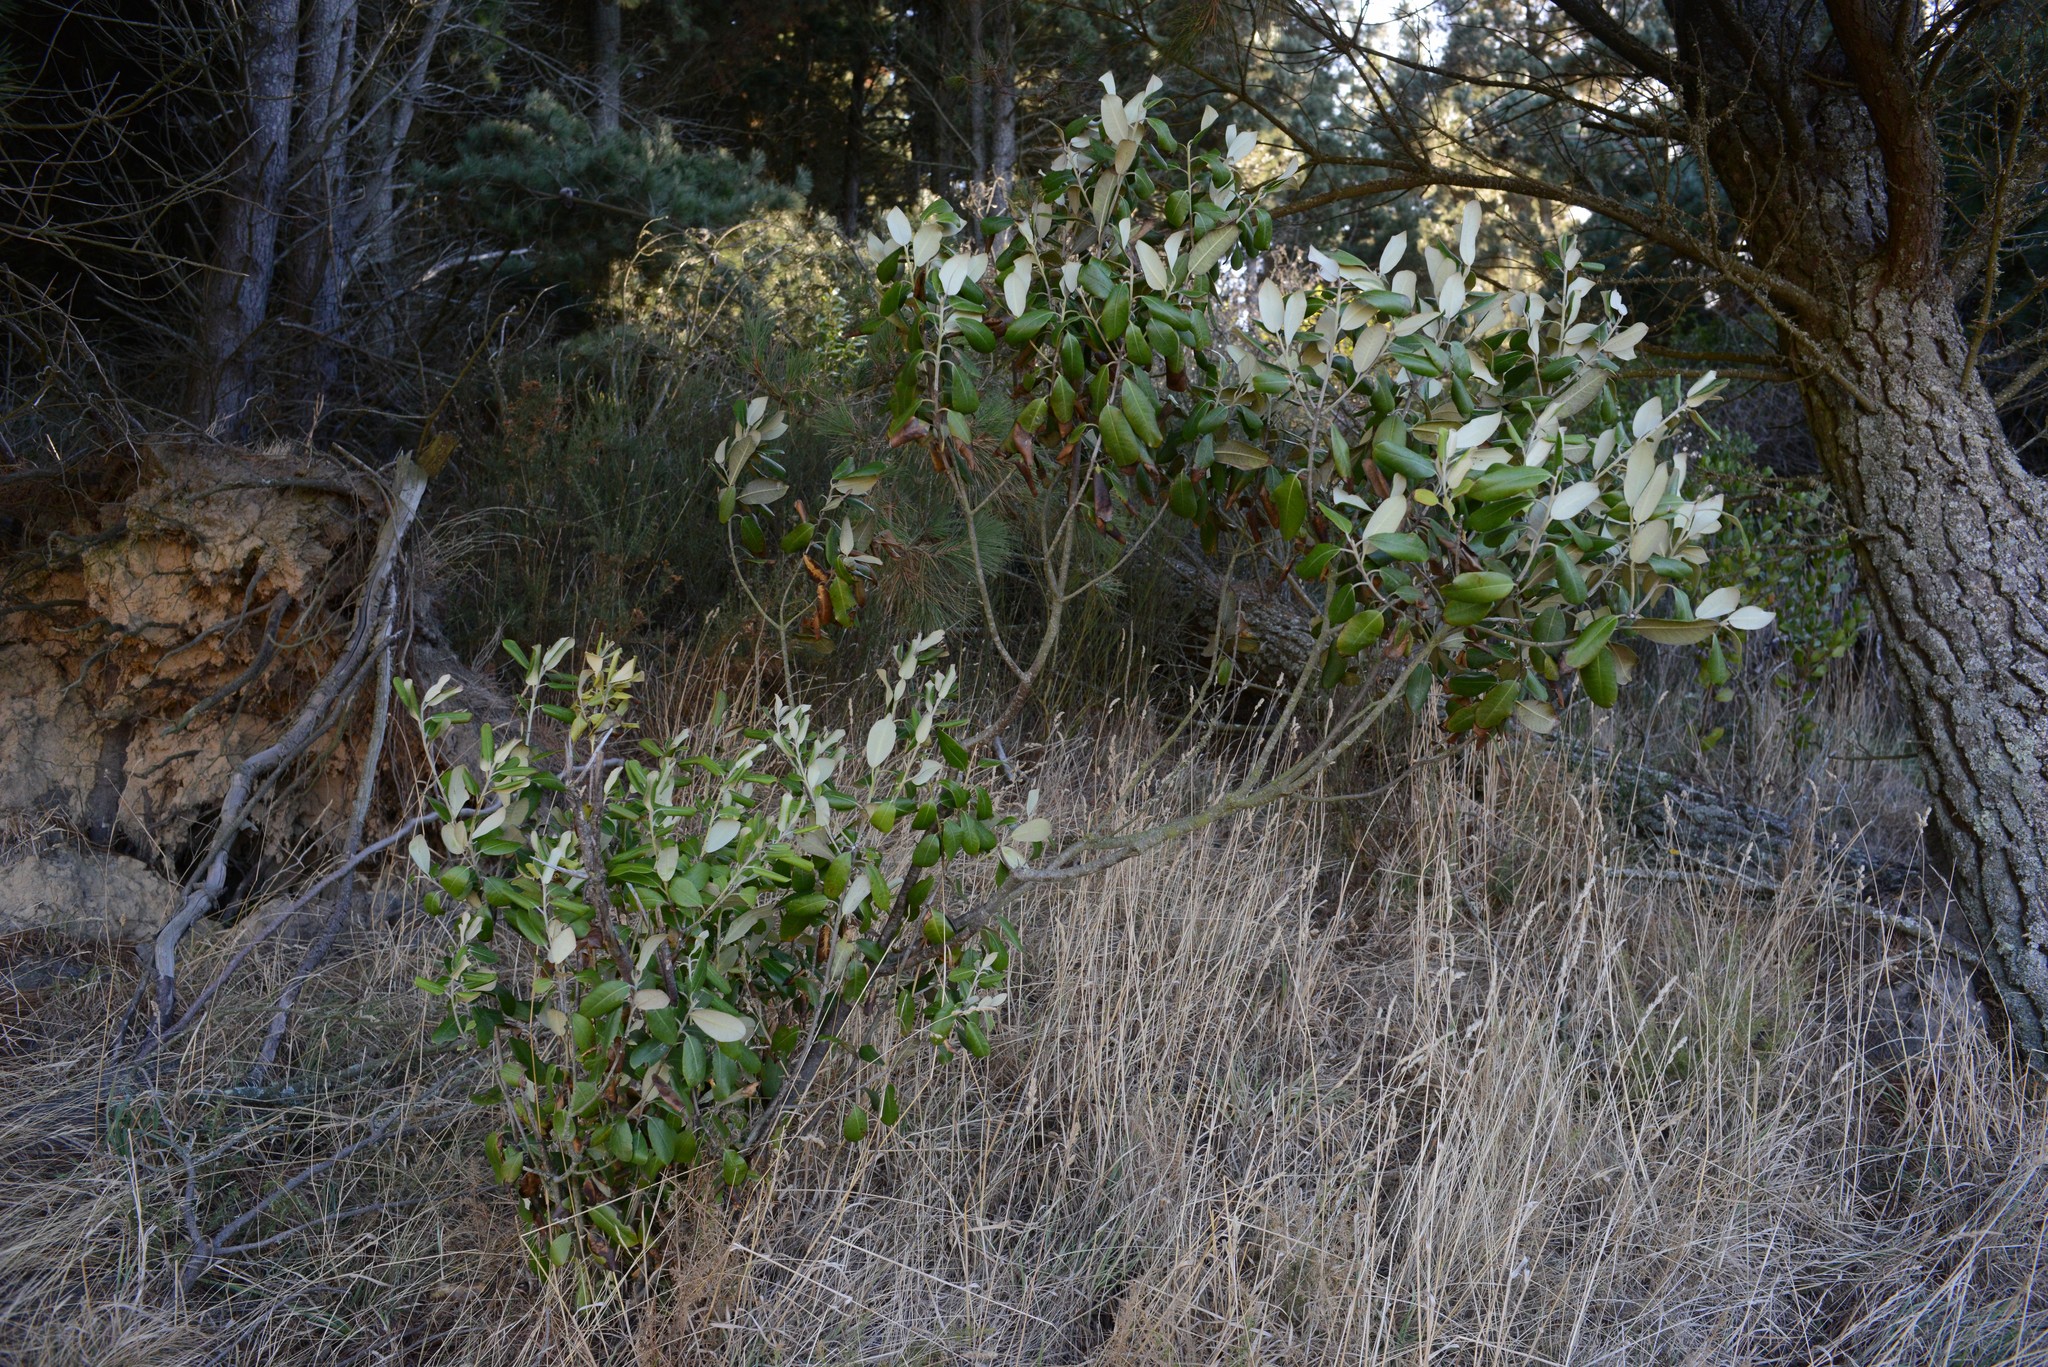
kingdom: Plantae
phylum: Tracheophyta
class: Magnoliopsida
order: Apiales
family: Pittosporaceae
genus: Pittosporum
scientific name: Pittosporum ralphii
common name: Ralph's desertwillow
